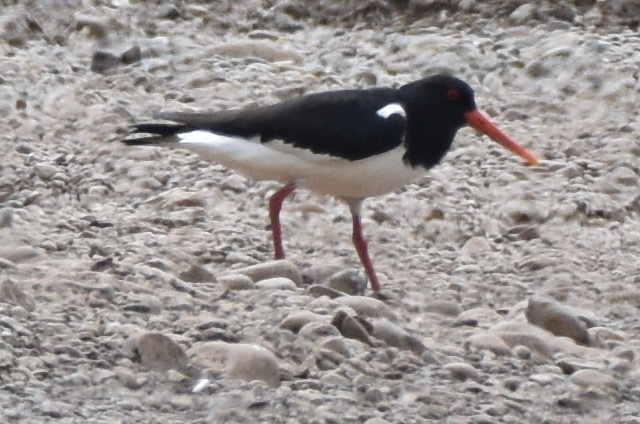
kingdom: Animalia
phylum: Chordata
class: Aves
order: Charadriiformes
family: Haematopodidae
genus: Haematopus
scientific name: Haematopus ostralegus
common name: Eurasian oystercatcher
